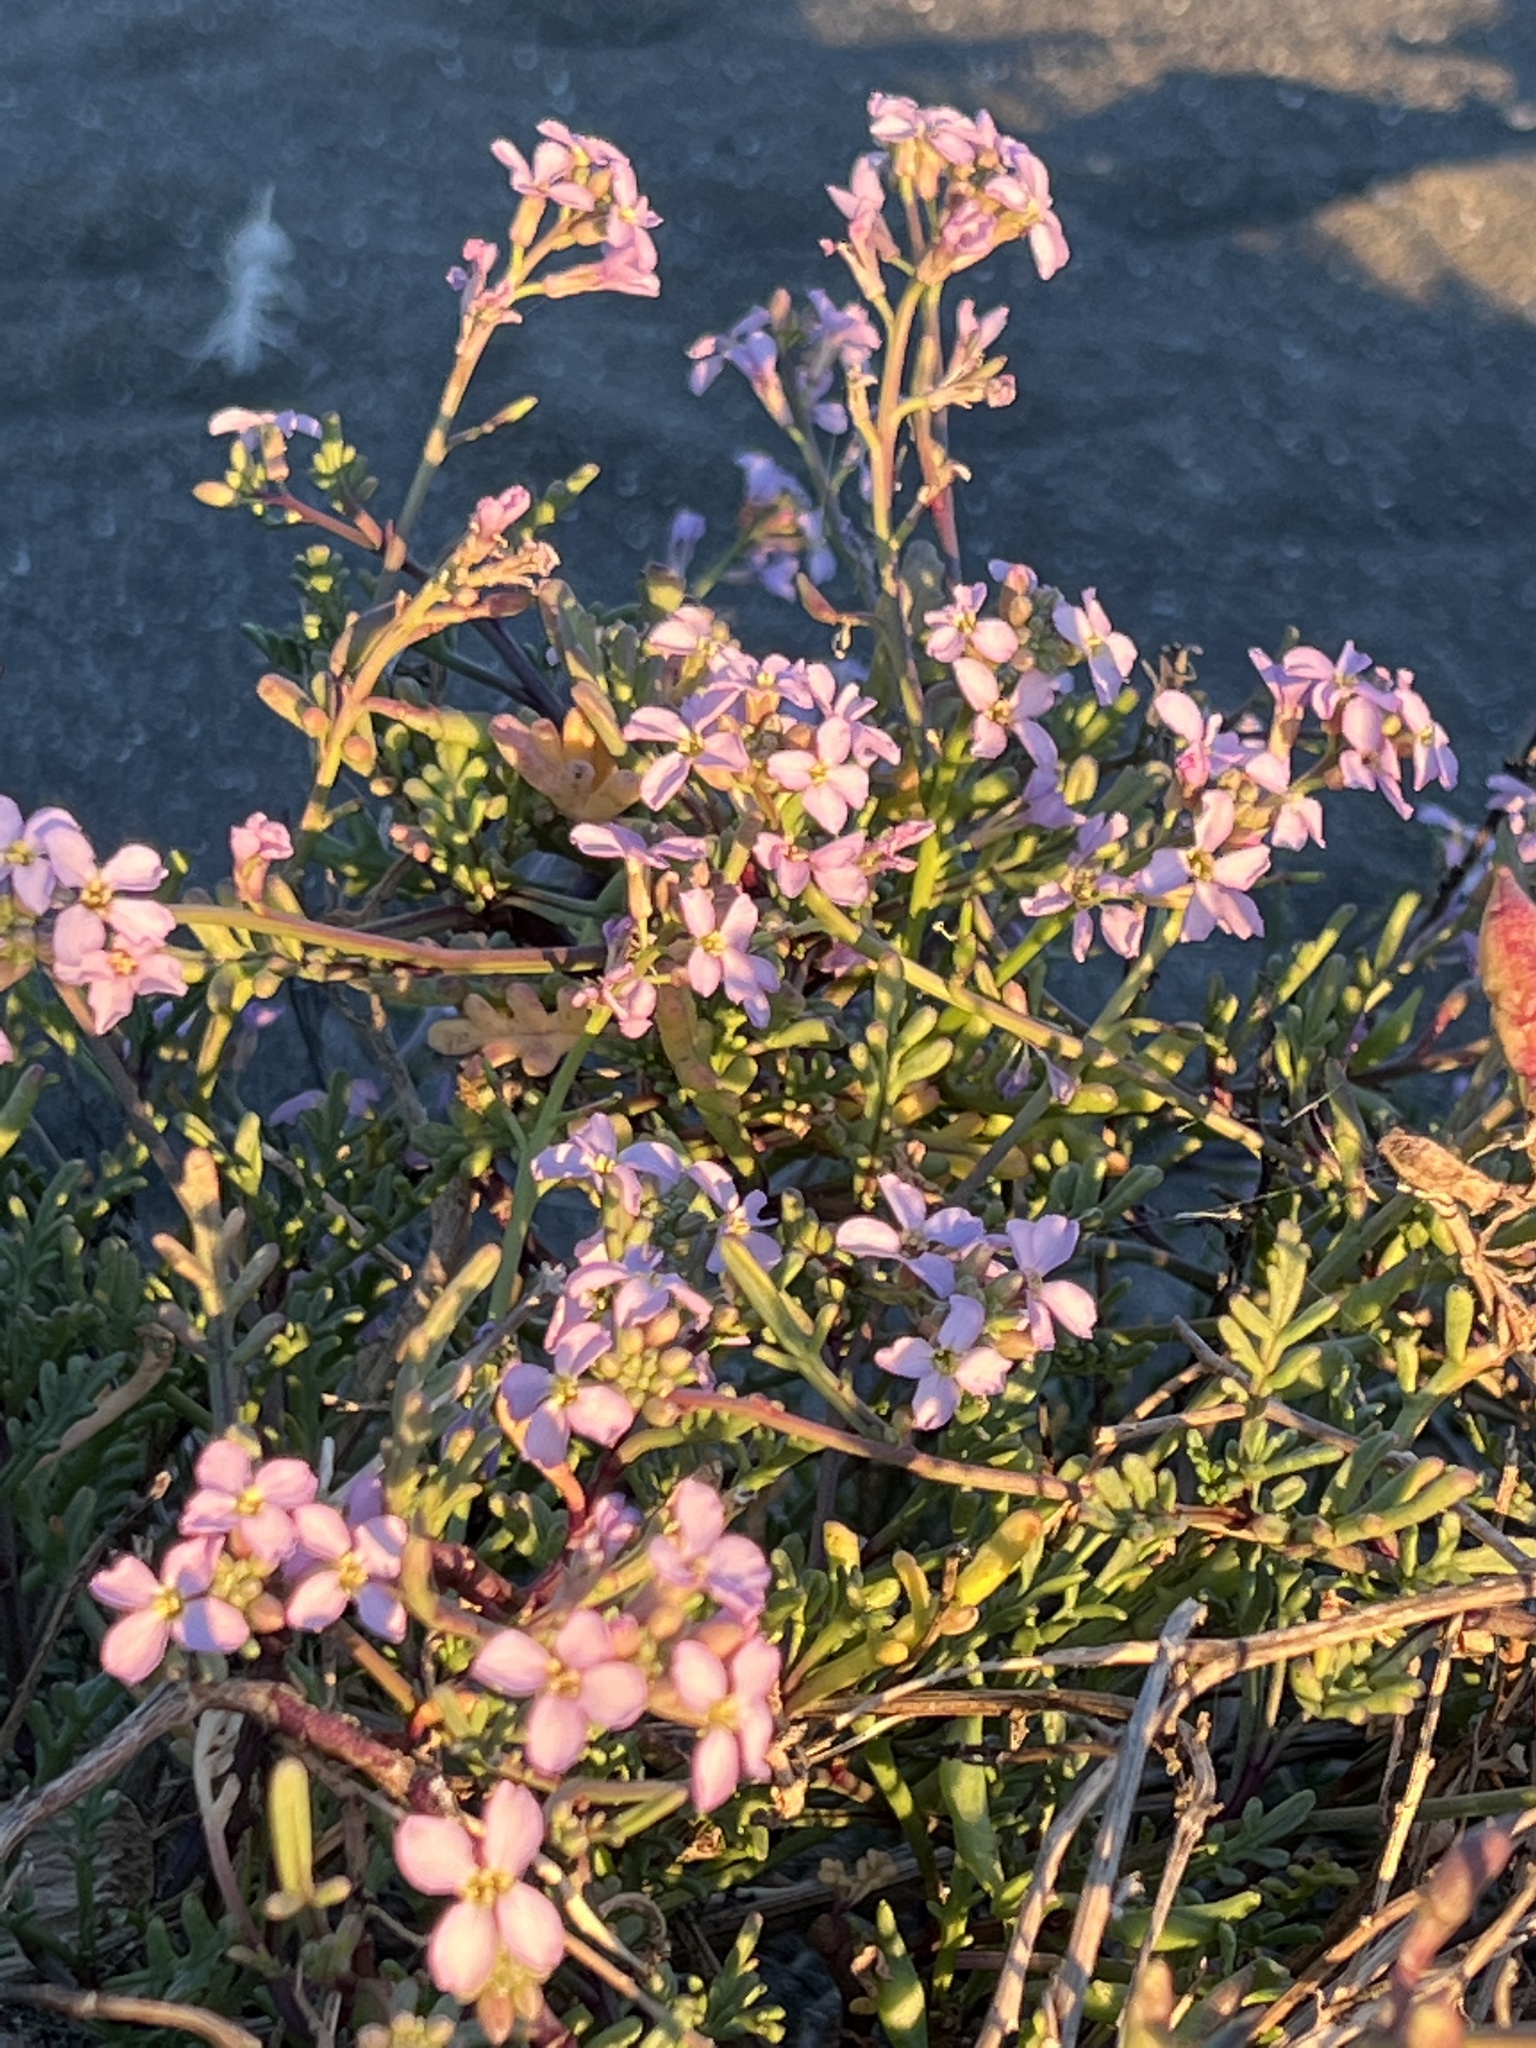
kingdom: Plantae
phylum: Tracheophyta
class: Magnoliopsida
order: Brassicales
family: Brassicaceae
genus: Cakile
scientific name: Cakile maritima
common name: Sea rocket
